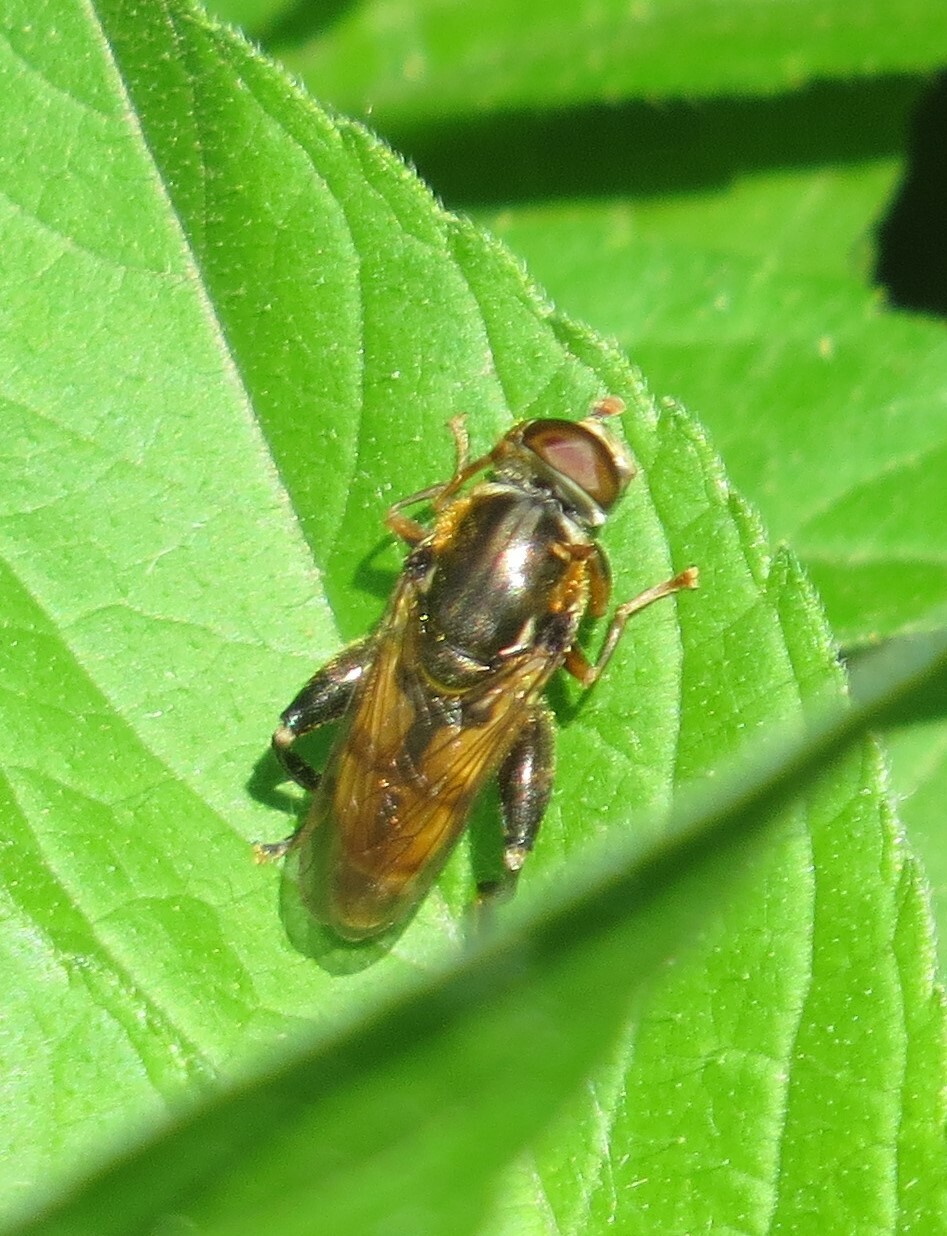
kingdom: Animalia
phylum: Arthropoda
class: Insecta
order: Diptera
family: Syrphidae
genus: Tropidia
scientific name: Tropidia quadrata
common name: Common thick-legged fly
